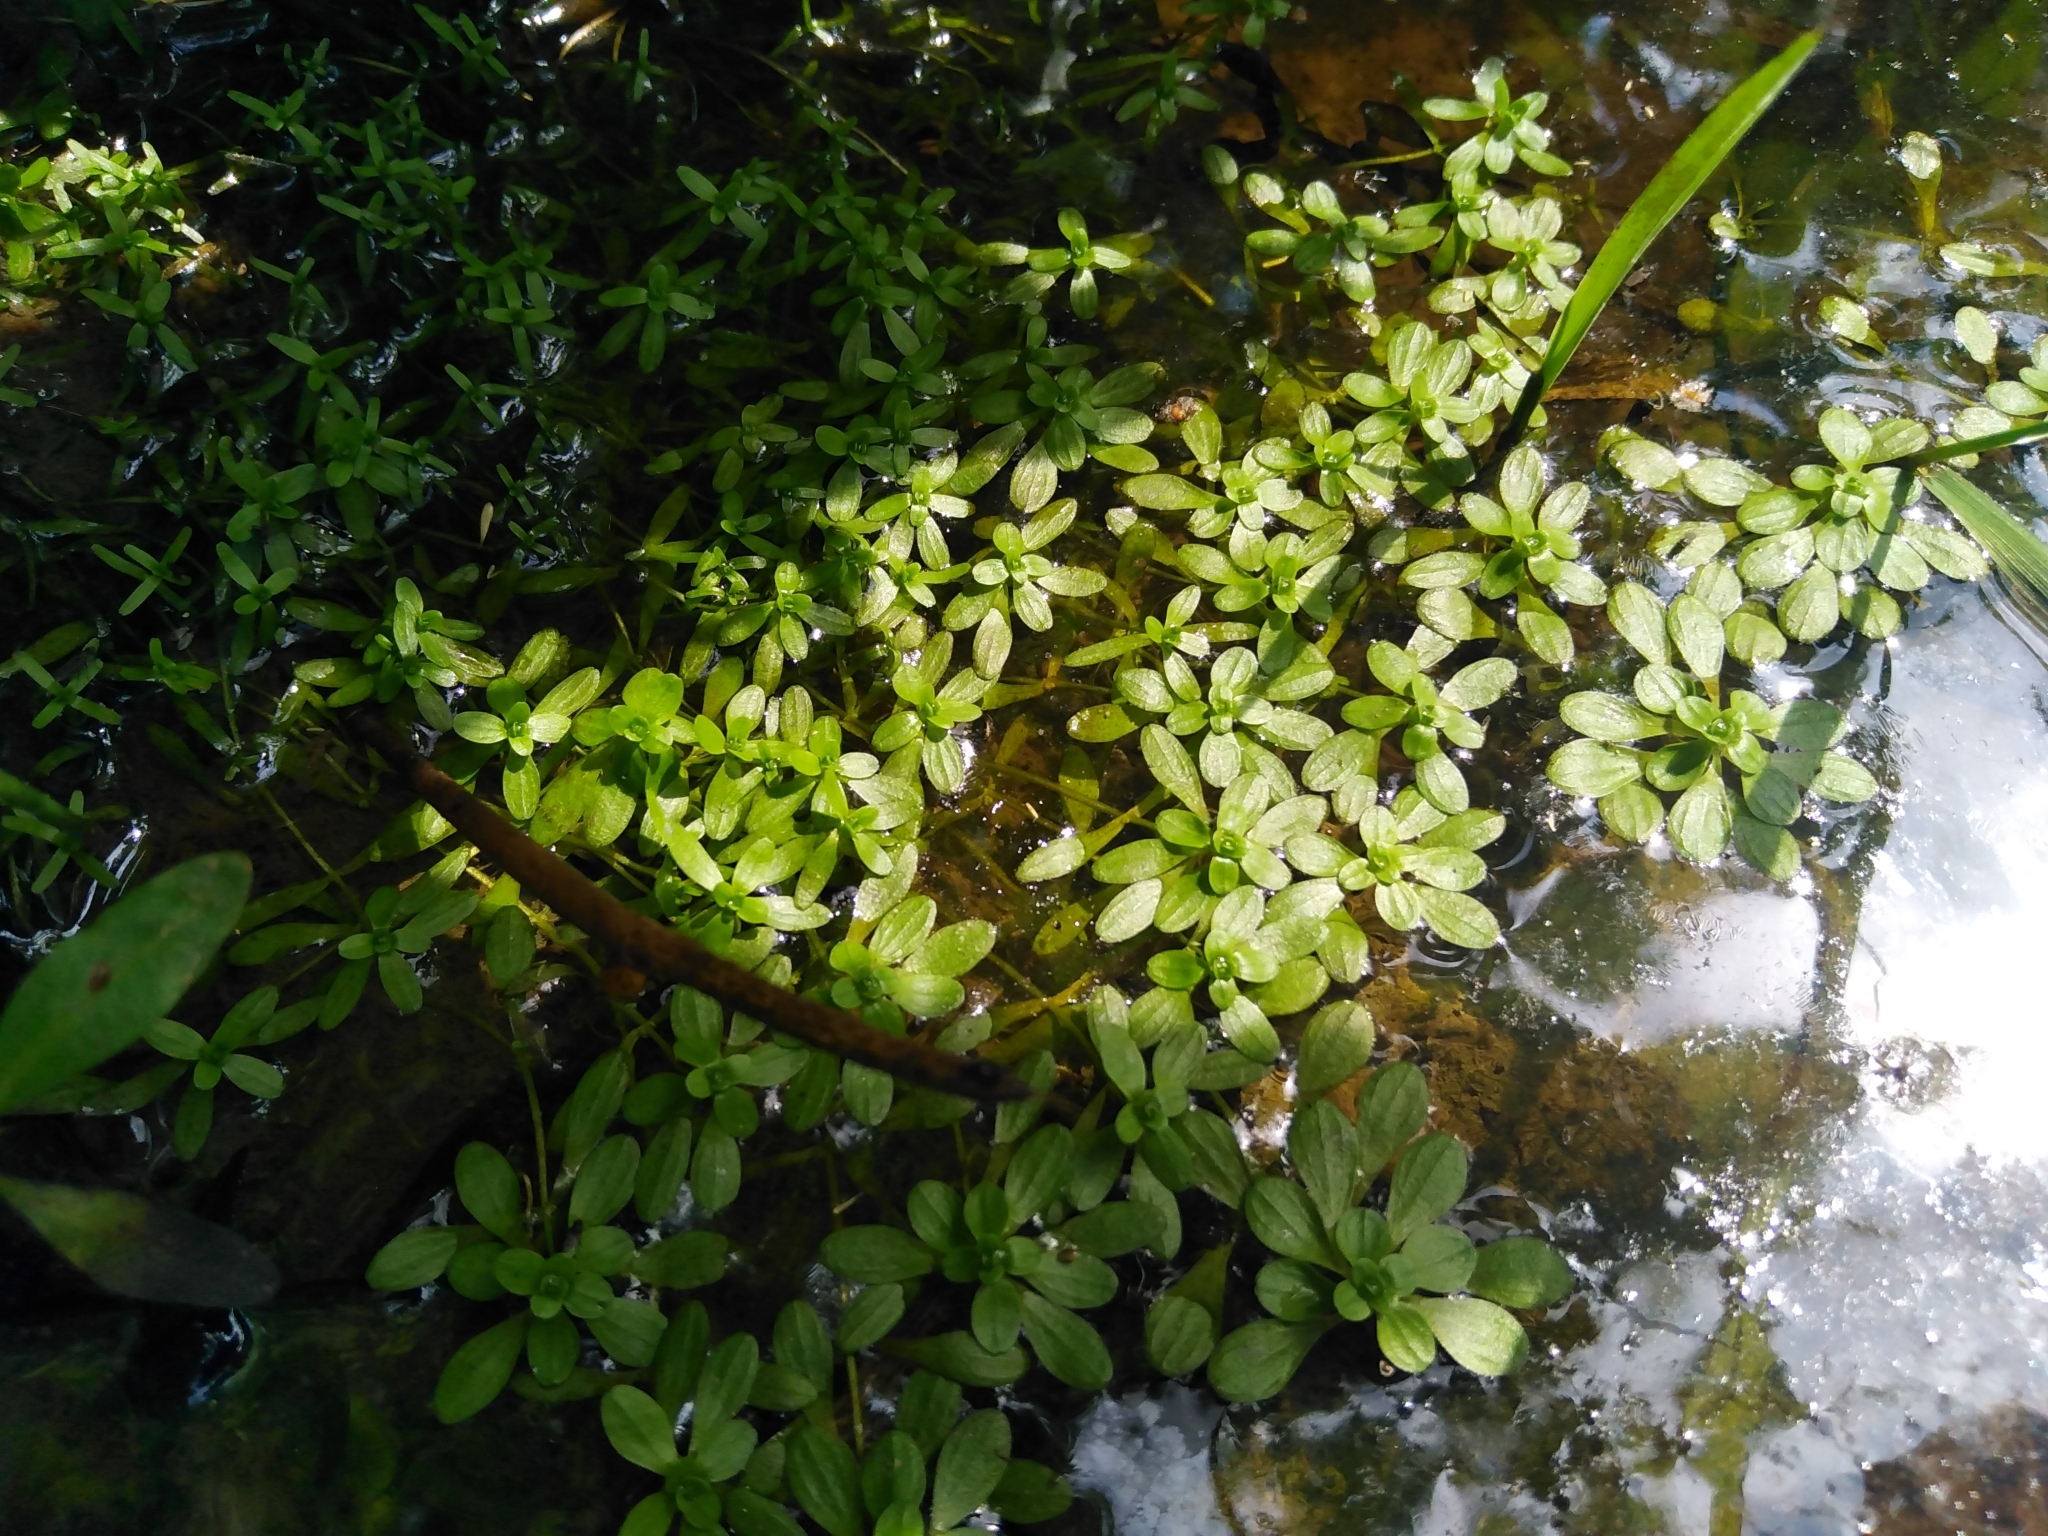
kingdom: Plantae
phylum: Tracheophyta
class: Magnoliopsida
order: Lamiales
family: Plantaginaceae
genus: Callitriche
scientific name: Callitriche palustris
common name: Spring water-starwort
